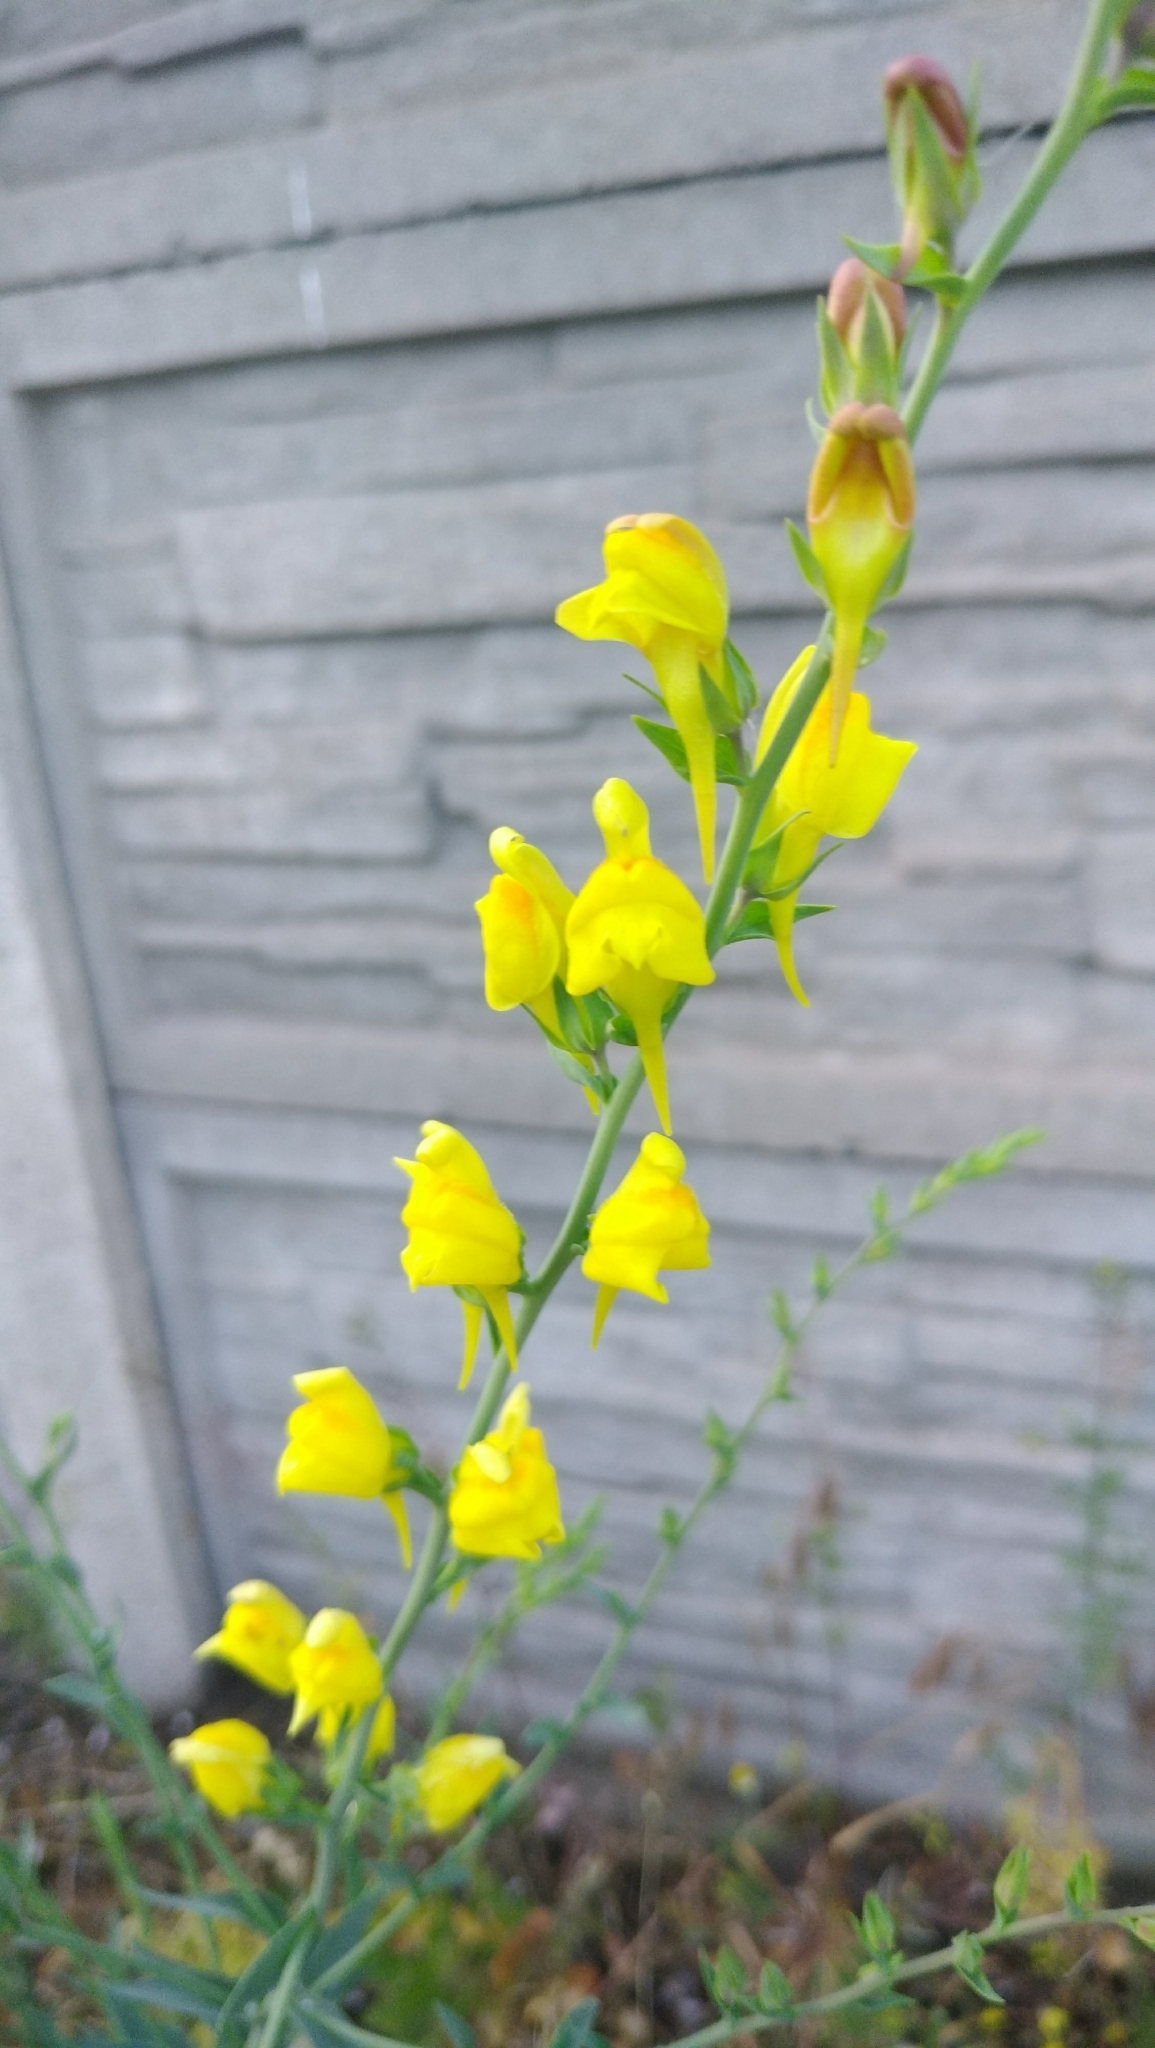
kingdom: Plantae
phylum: Tracheophyta
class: Magnoliopsida
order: Lamiales
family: Plantaginaceae
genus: Linaria
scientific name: Linaria genistifolia
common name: Broomleaf toadflax
